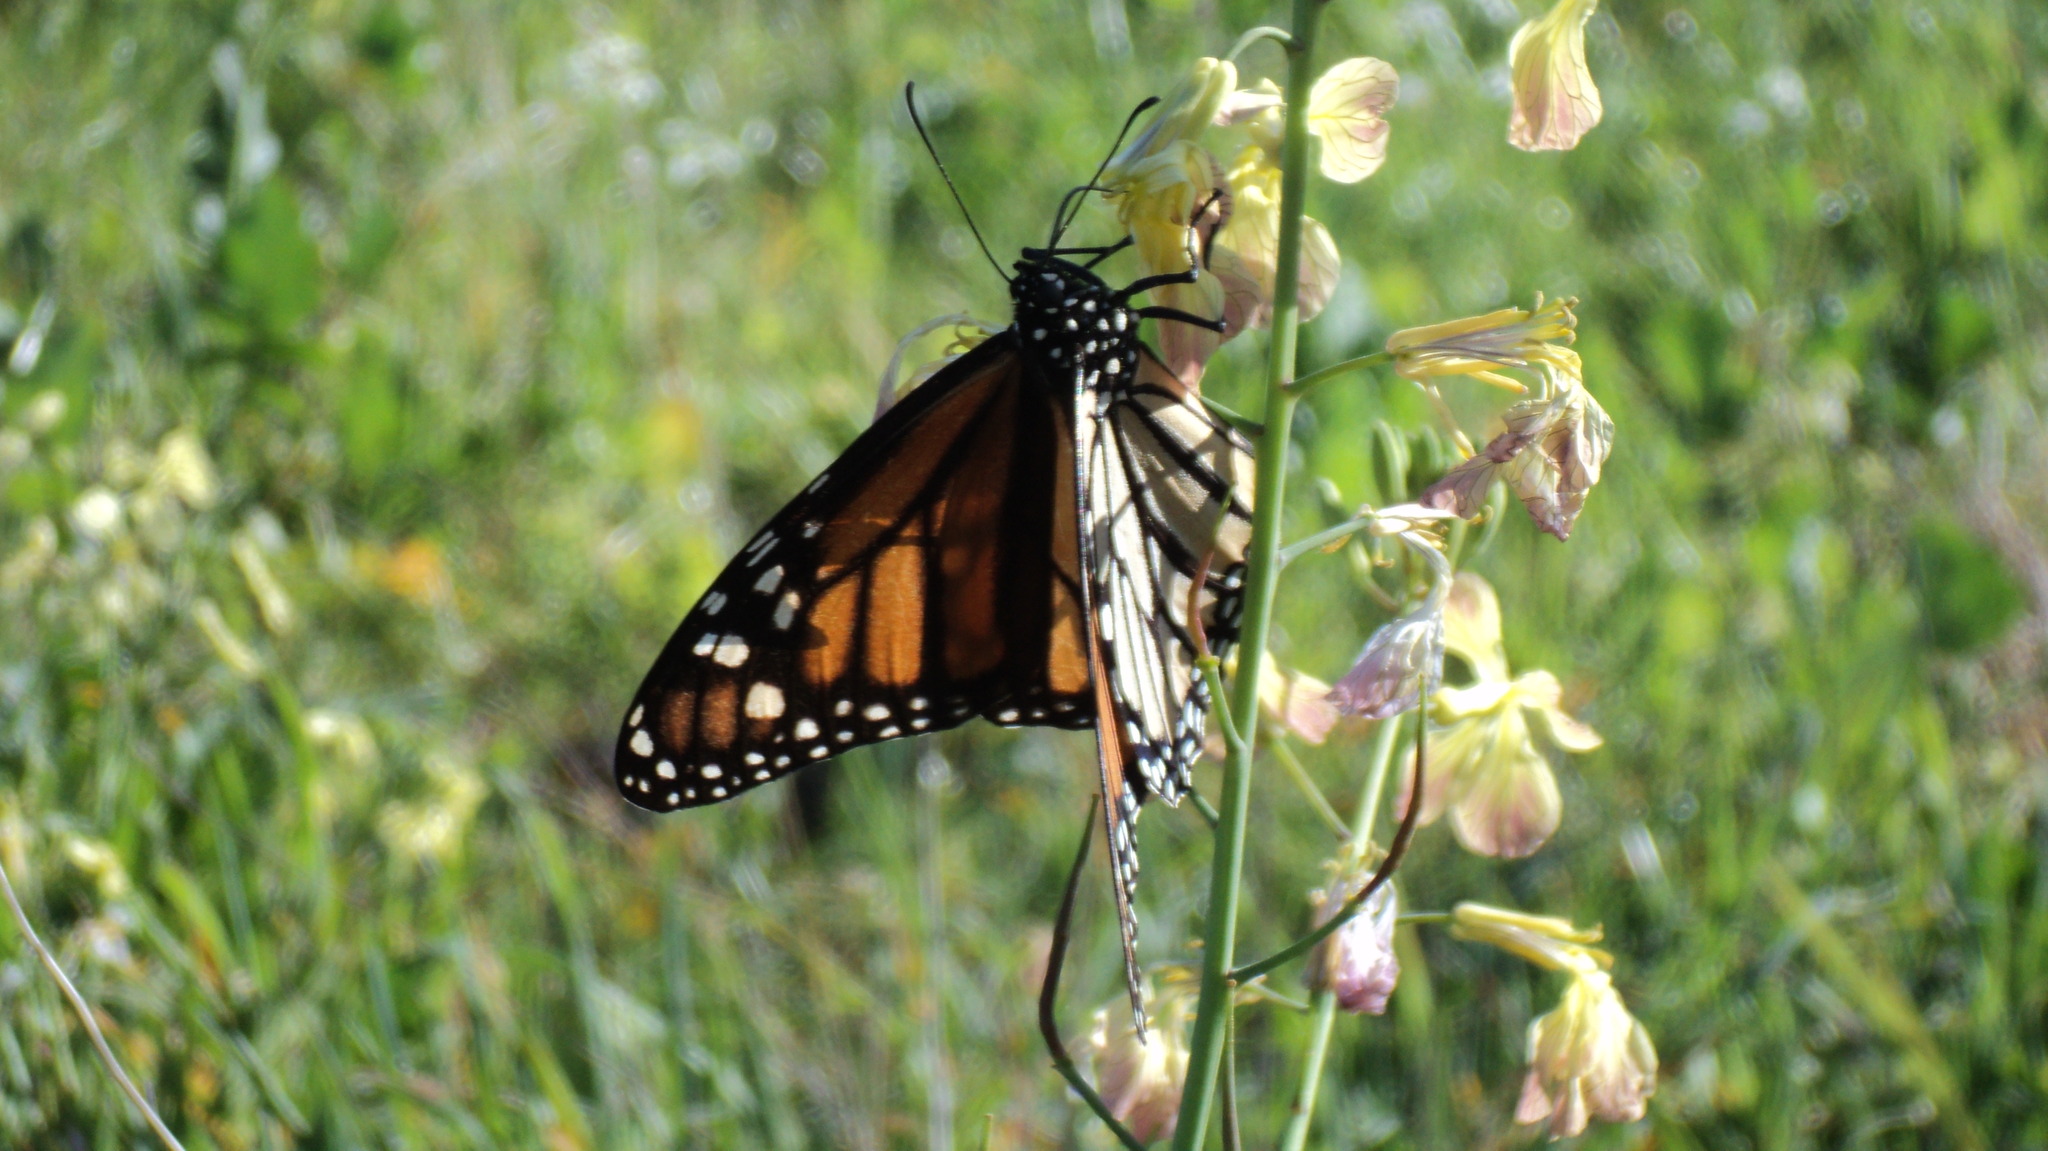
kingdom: Animalia
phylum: Arthropoda
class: Insecta
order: Lepidoptera
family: Nymphalidae
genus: Danaus
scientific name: Danaus plexippus
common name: Monarch
